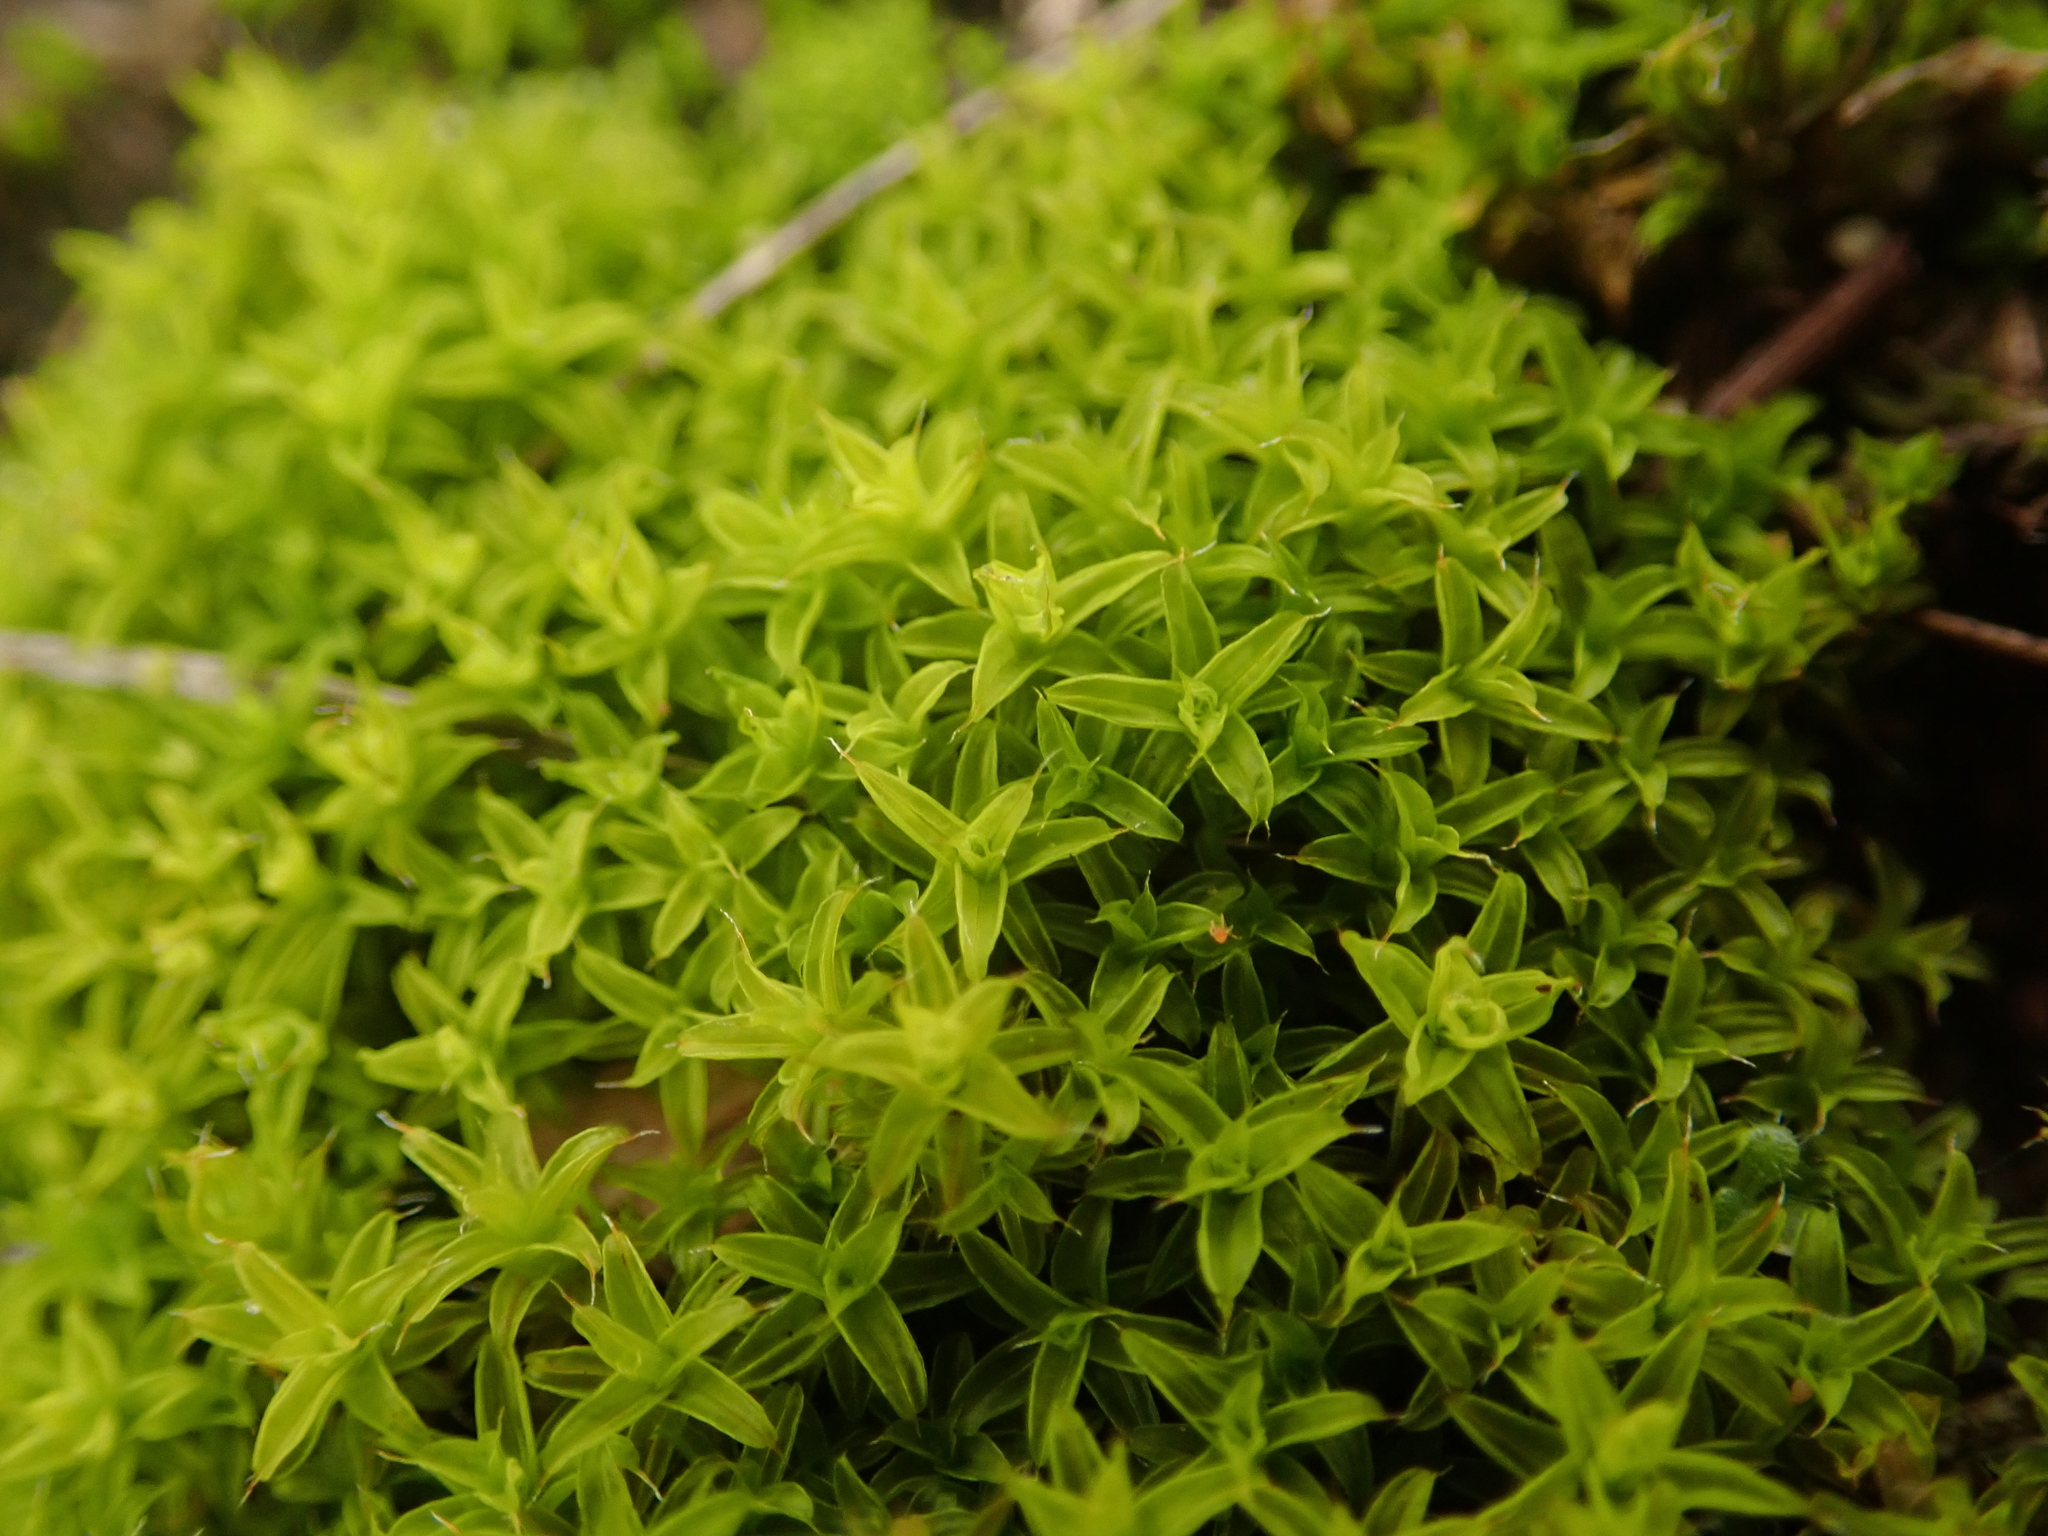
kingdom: Plantae
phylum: Bryophyta
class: Bryopsida
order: Pottiales
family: Pottiaceae
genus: Syntrichia
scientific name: Syntrichia ruralis
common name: Sidewalk screw moss
